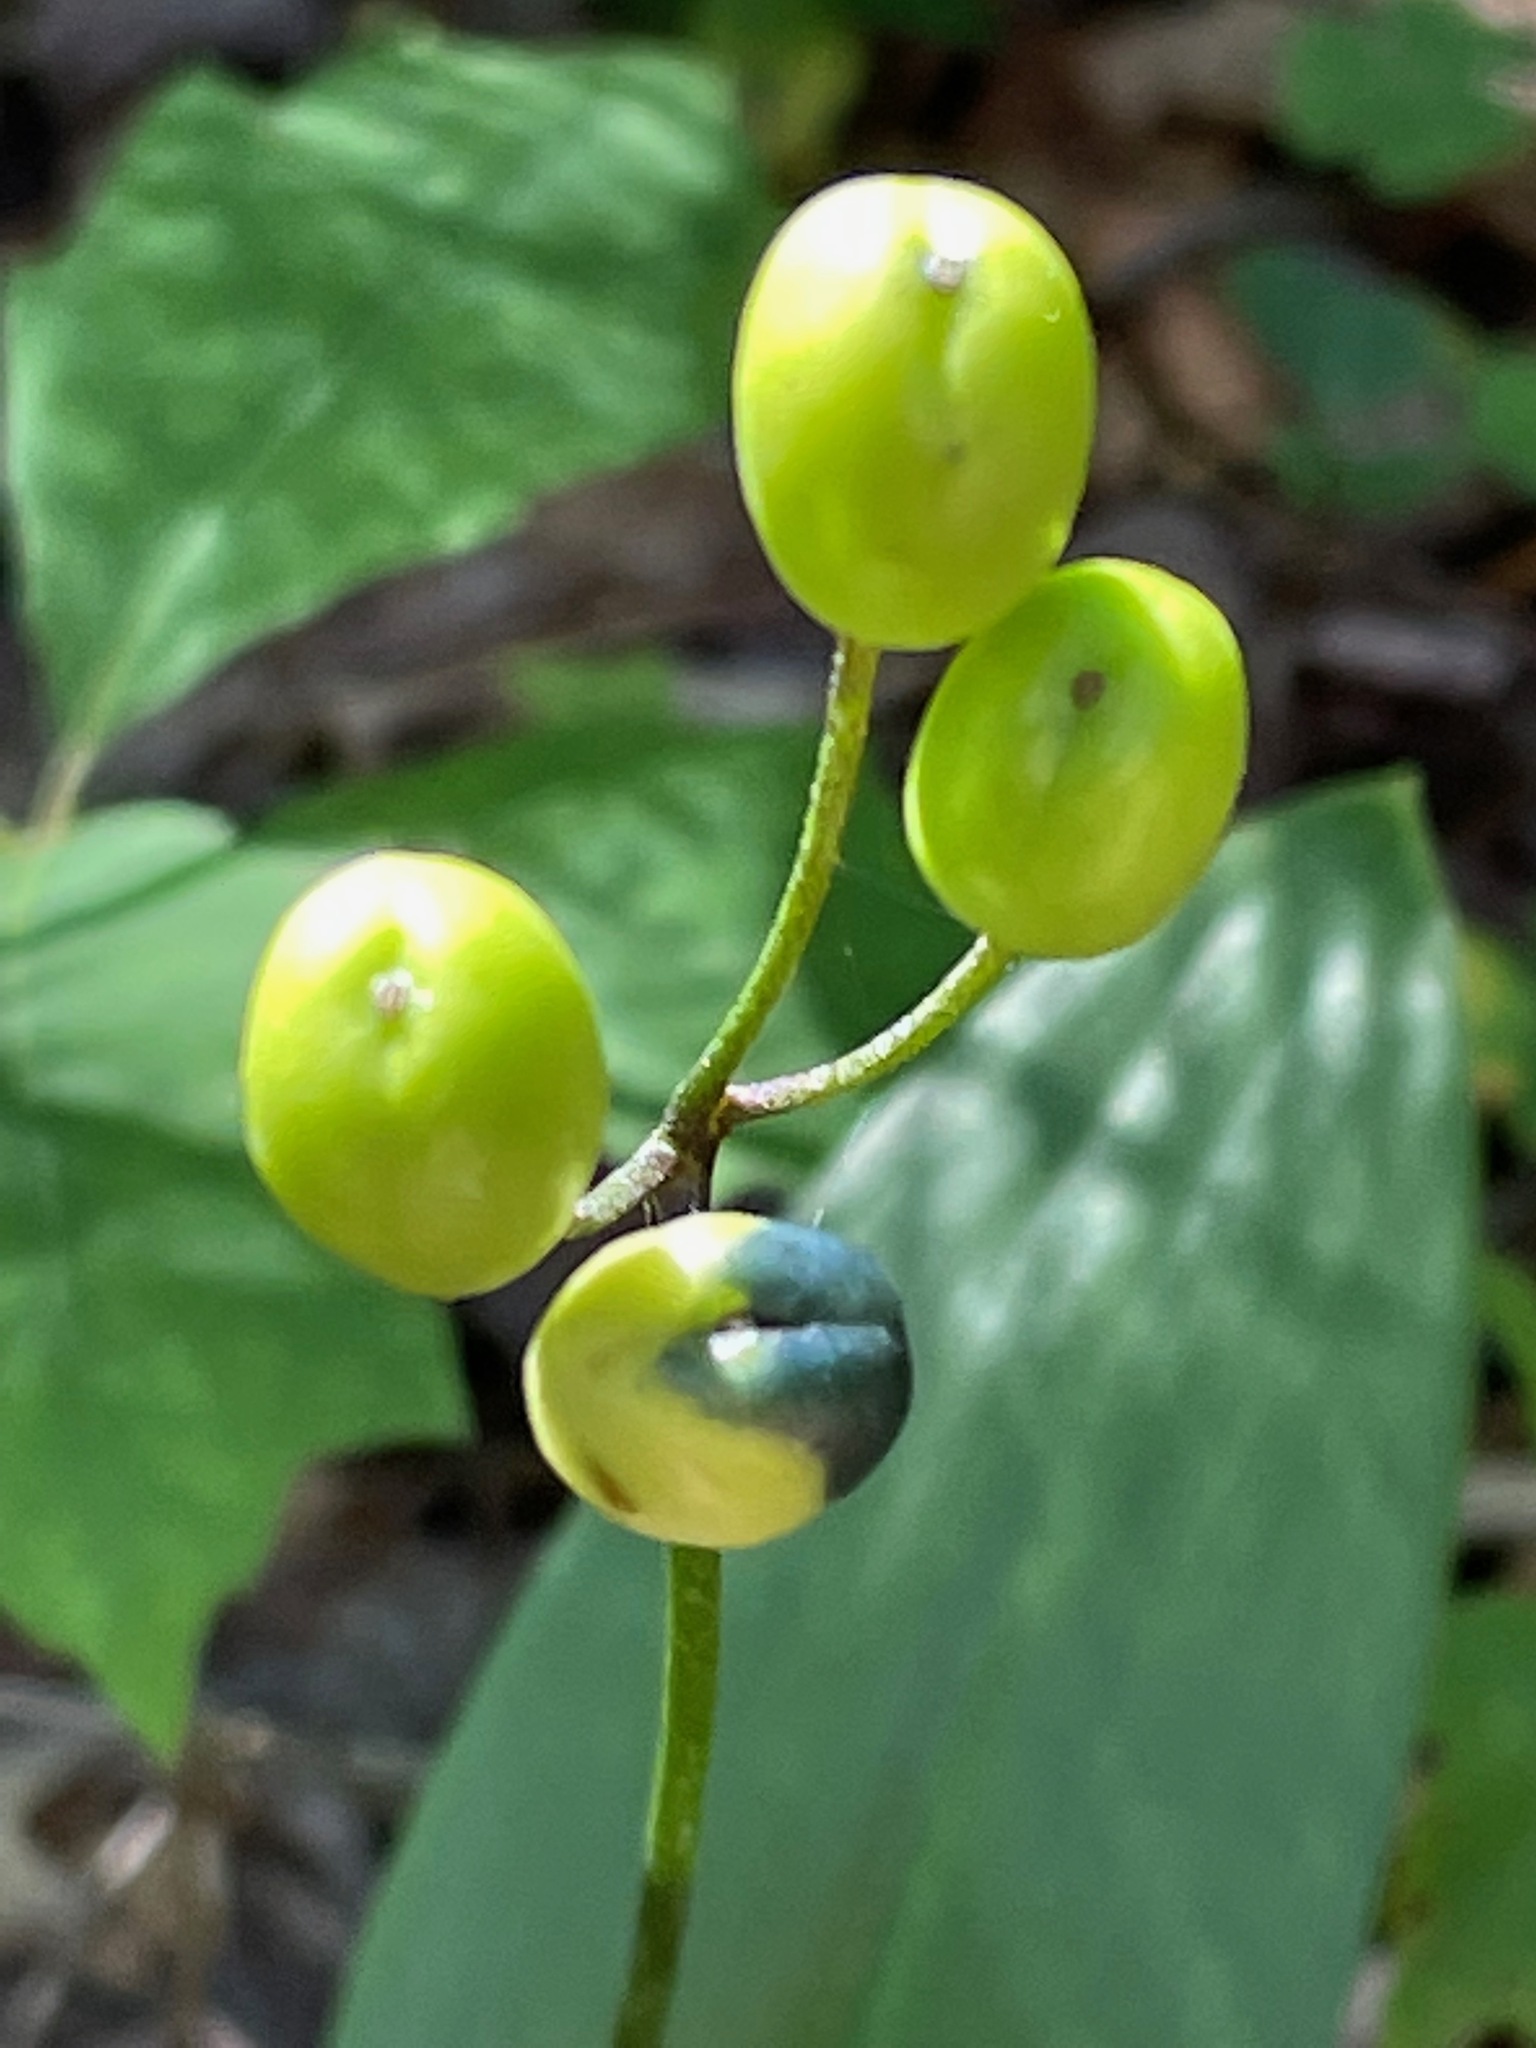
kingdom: Plantae
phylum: Tracheophyta
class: Liliopsida
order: Liliales
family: Liliaceae
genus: Clintonia
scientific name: Clintonia borealis
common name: Yellow clintonia
